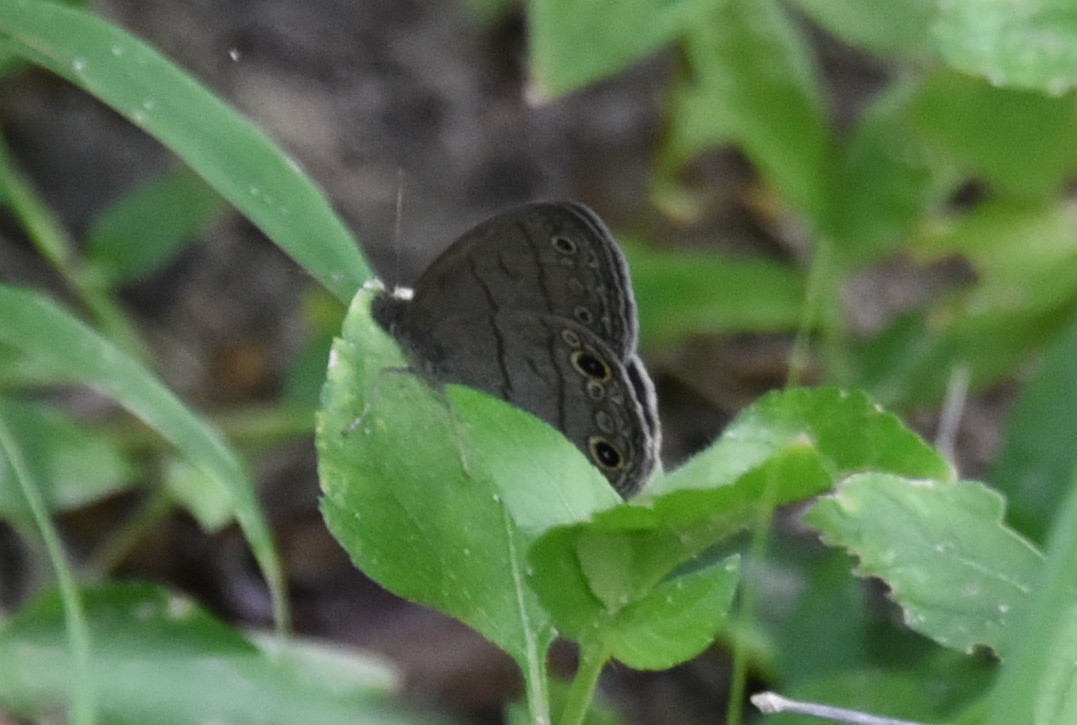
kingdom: Animalia
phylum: Arthropoda
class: Insecta
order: Lepidoptera
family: Nymphalidae
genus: Hermeuptychia
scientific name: Hermeuptychia hermes
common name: Hermes satyr
